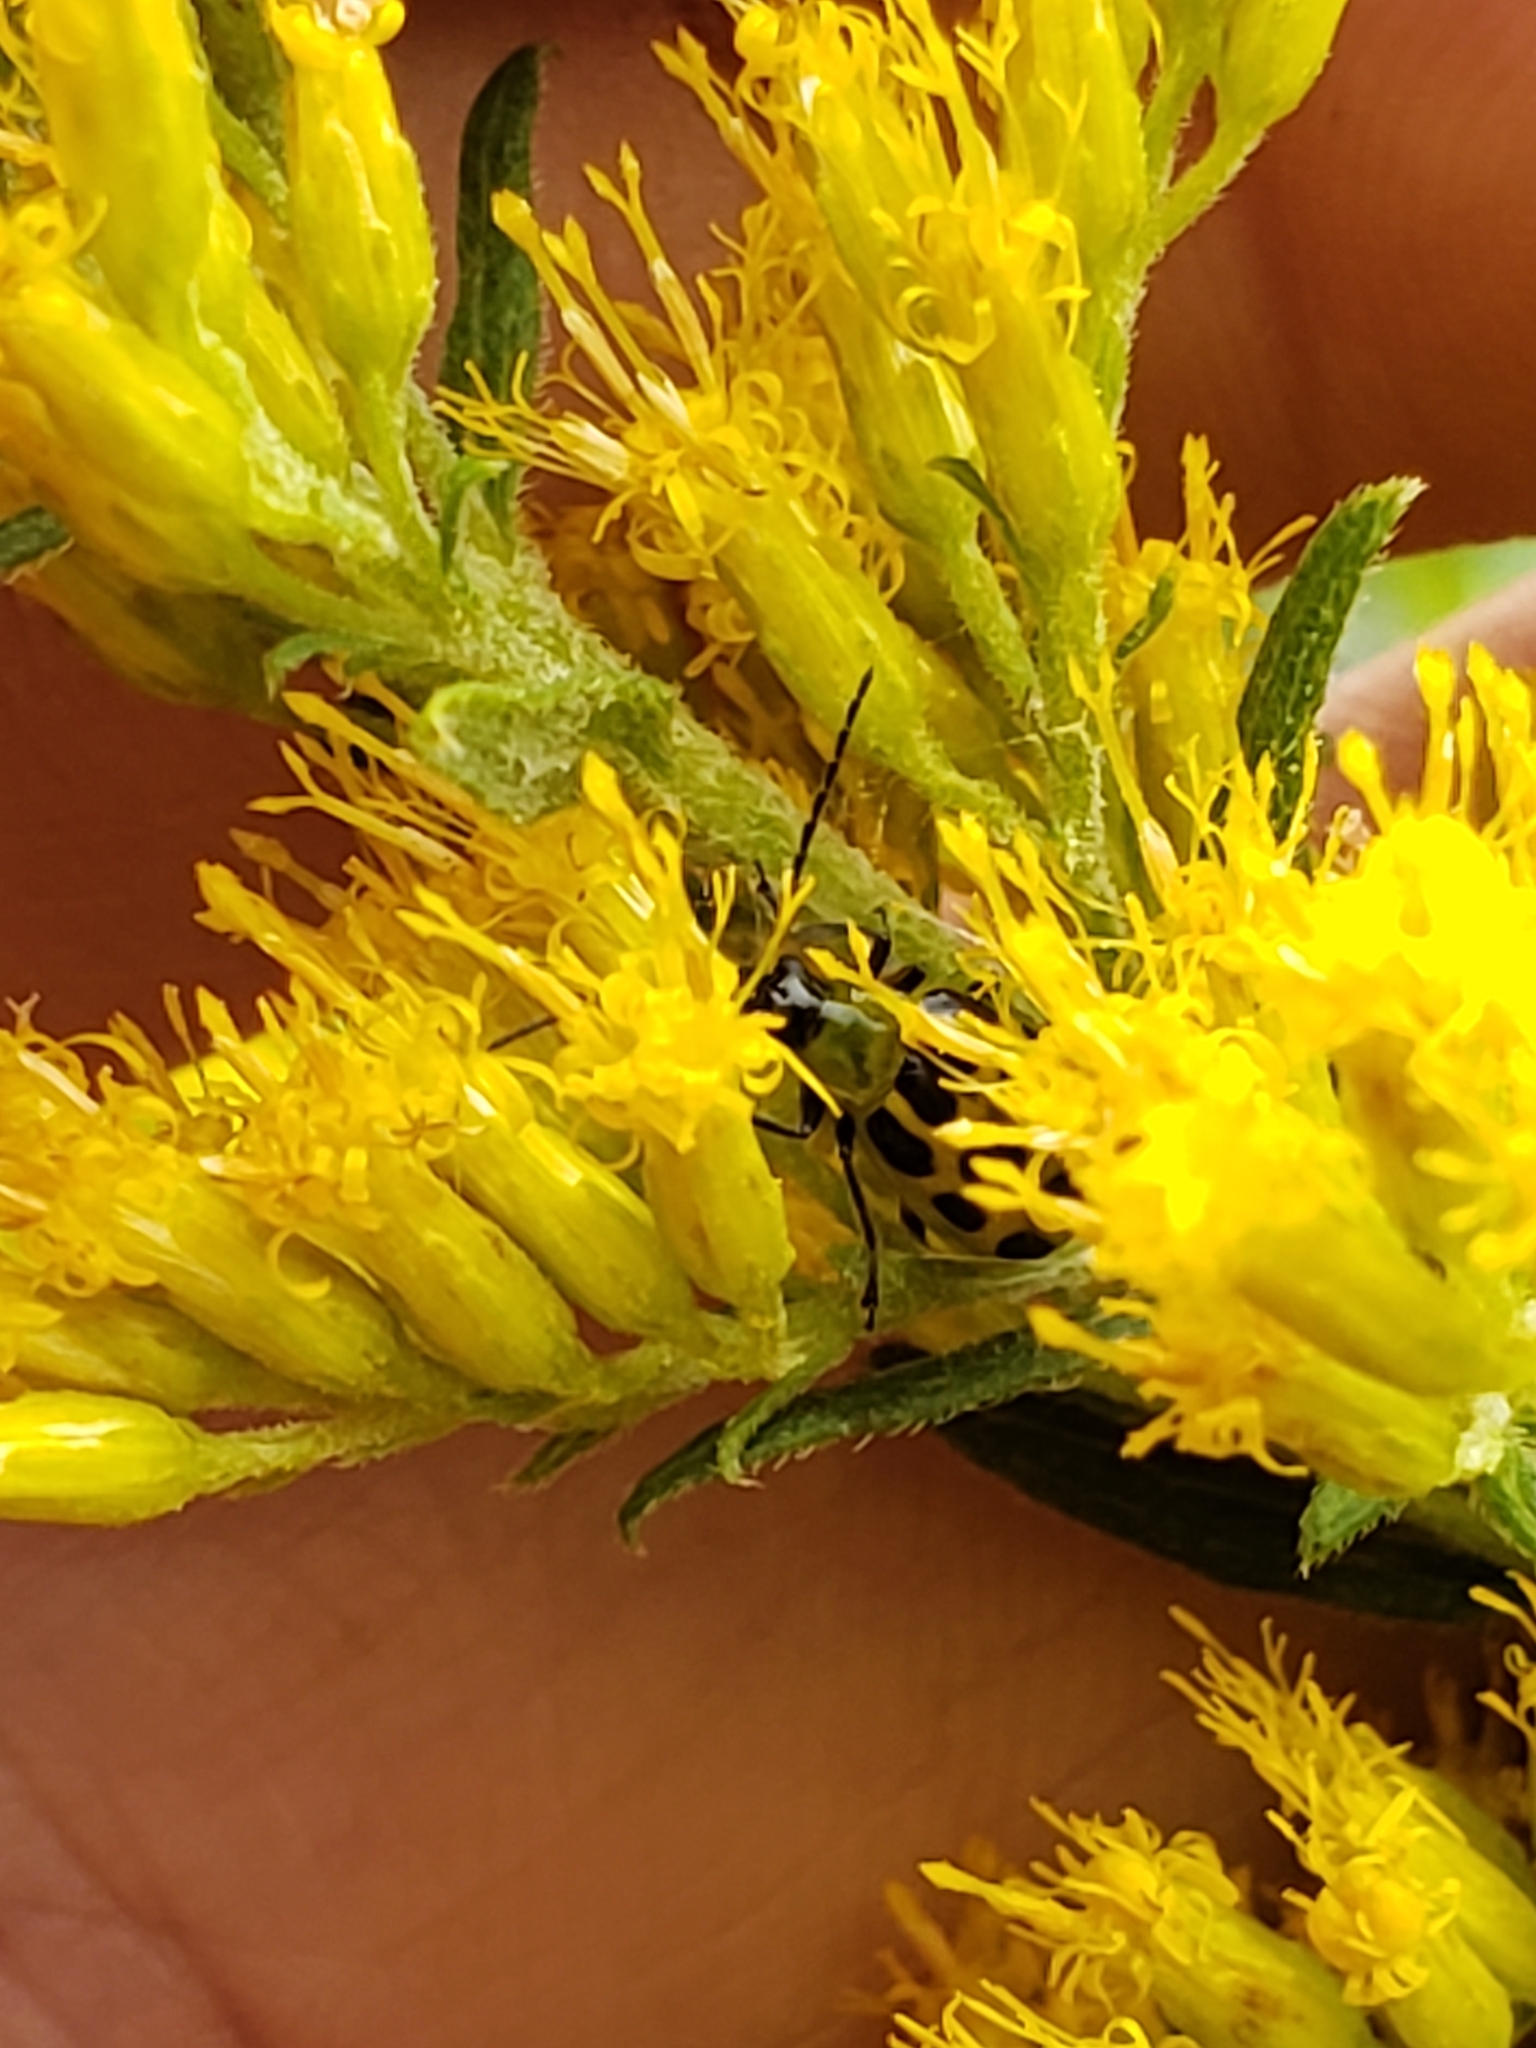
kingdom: Animalia
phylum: Arthropoda
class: Insecta
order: Coleoptera
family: Chrysomelidae
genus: Diabrotica
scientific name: Diabrotica undecimpunctata
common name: Spotted cucumber beetle
